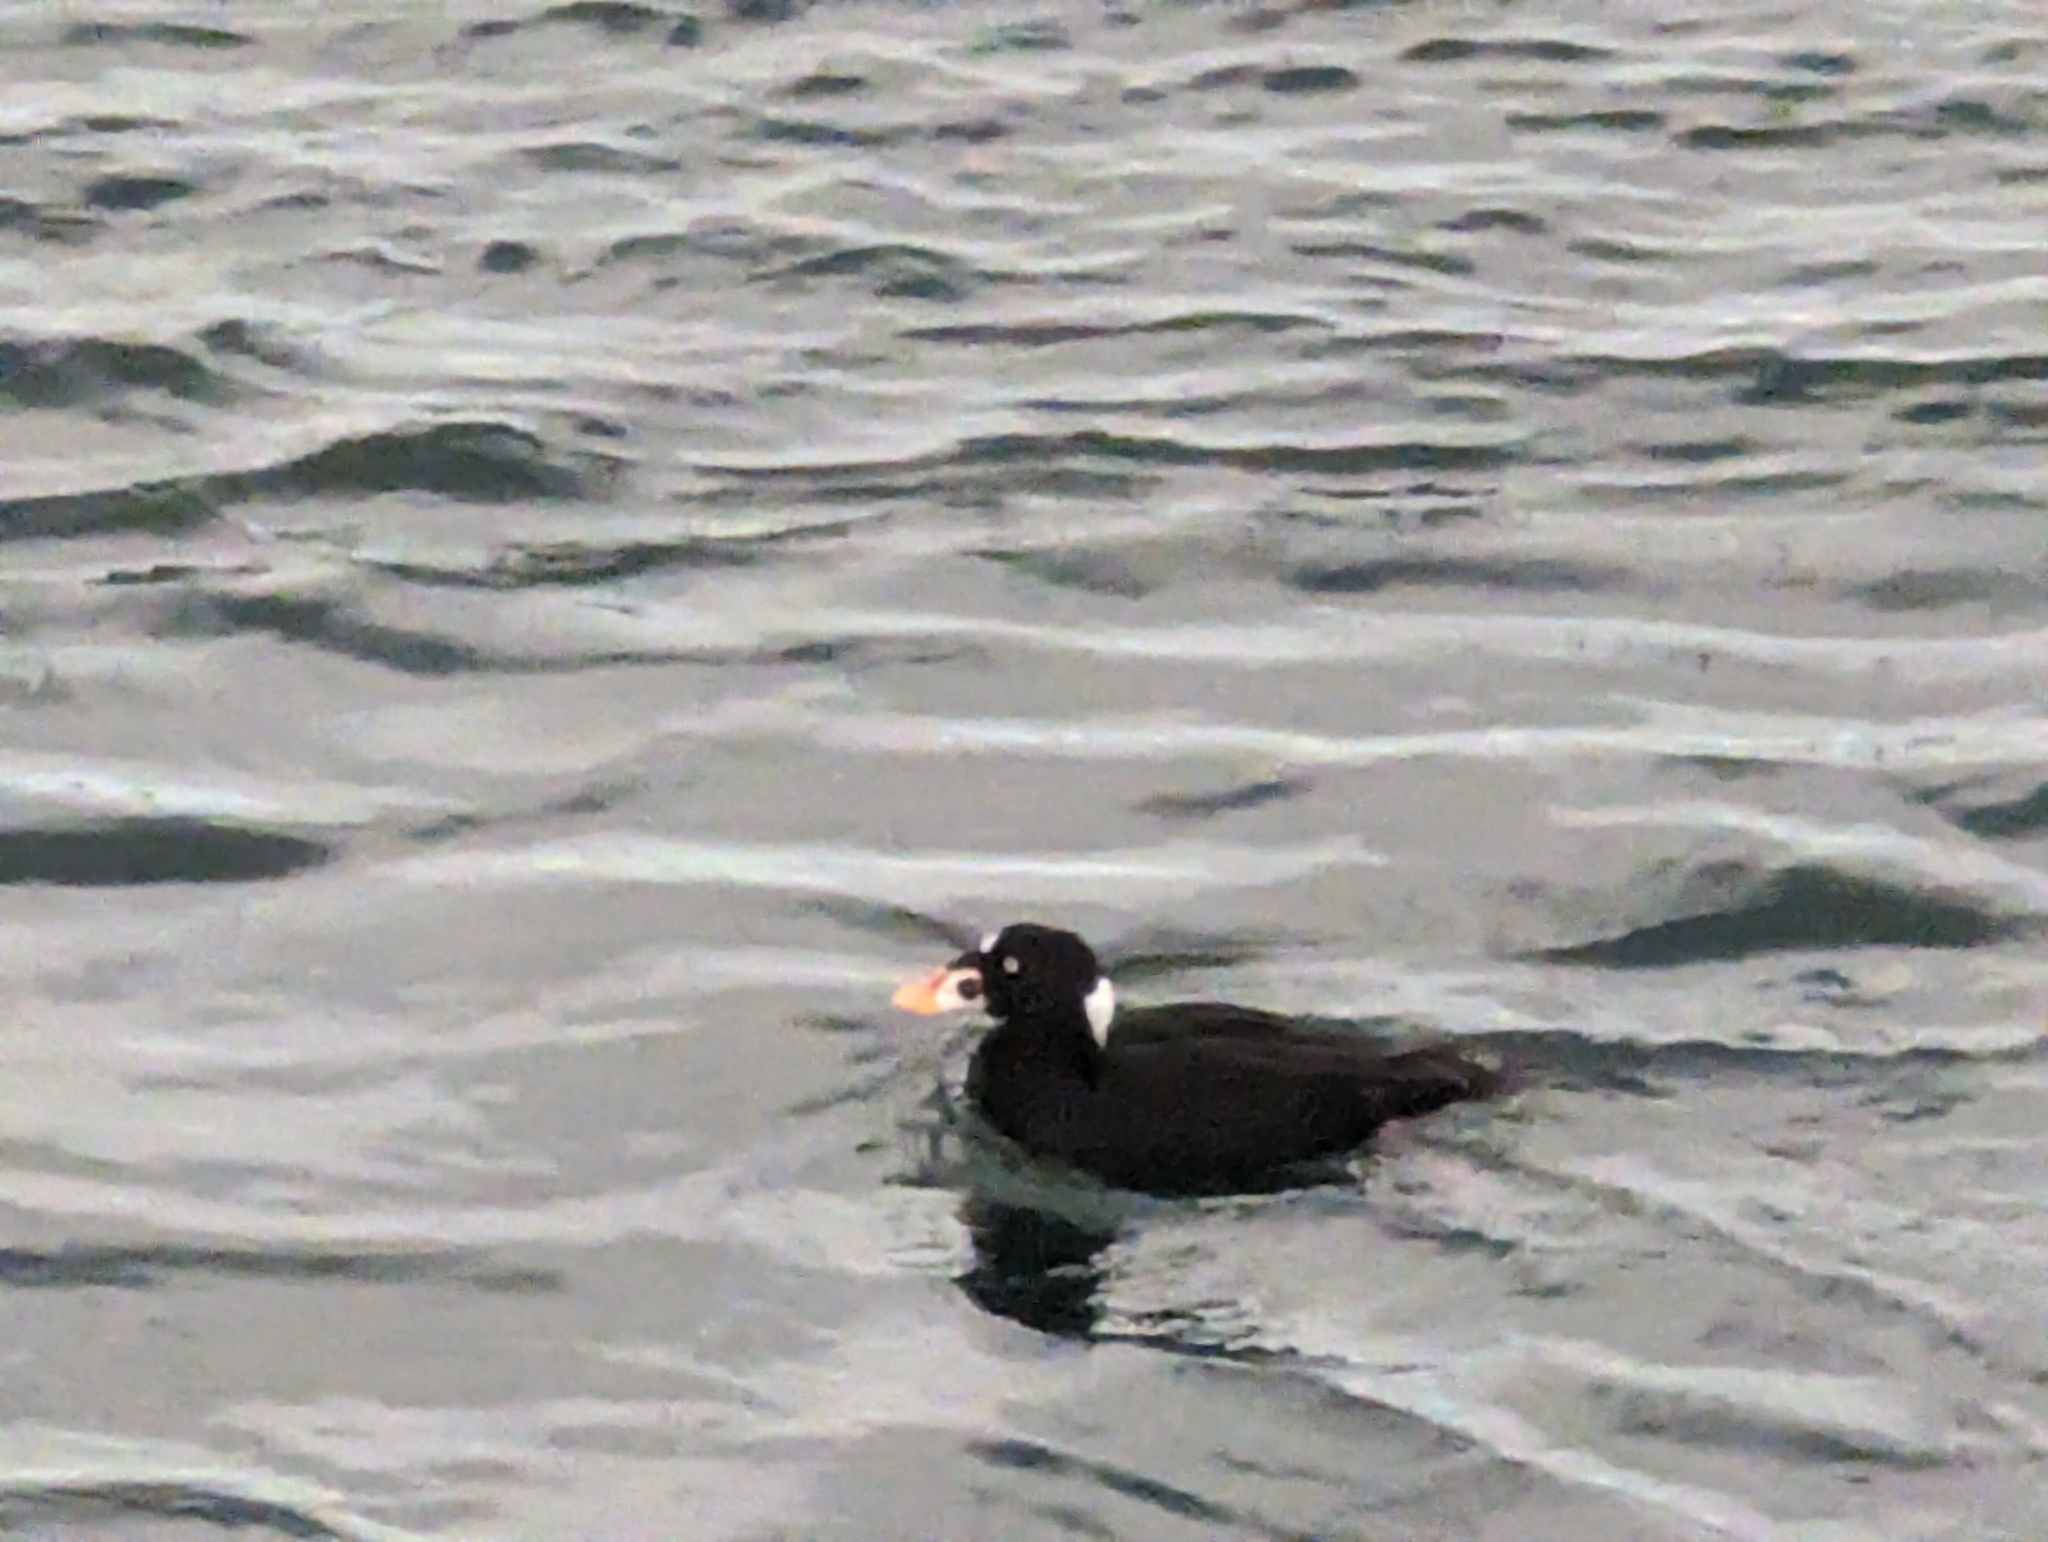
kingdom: Animalia
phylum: Chordata
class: Aves
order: Anseriformes
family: Anatidae
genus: Melanitta
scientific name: Melanitta perspicillata
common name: Surf scoter
